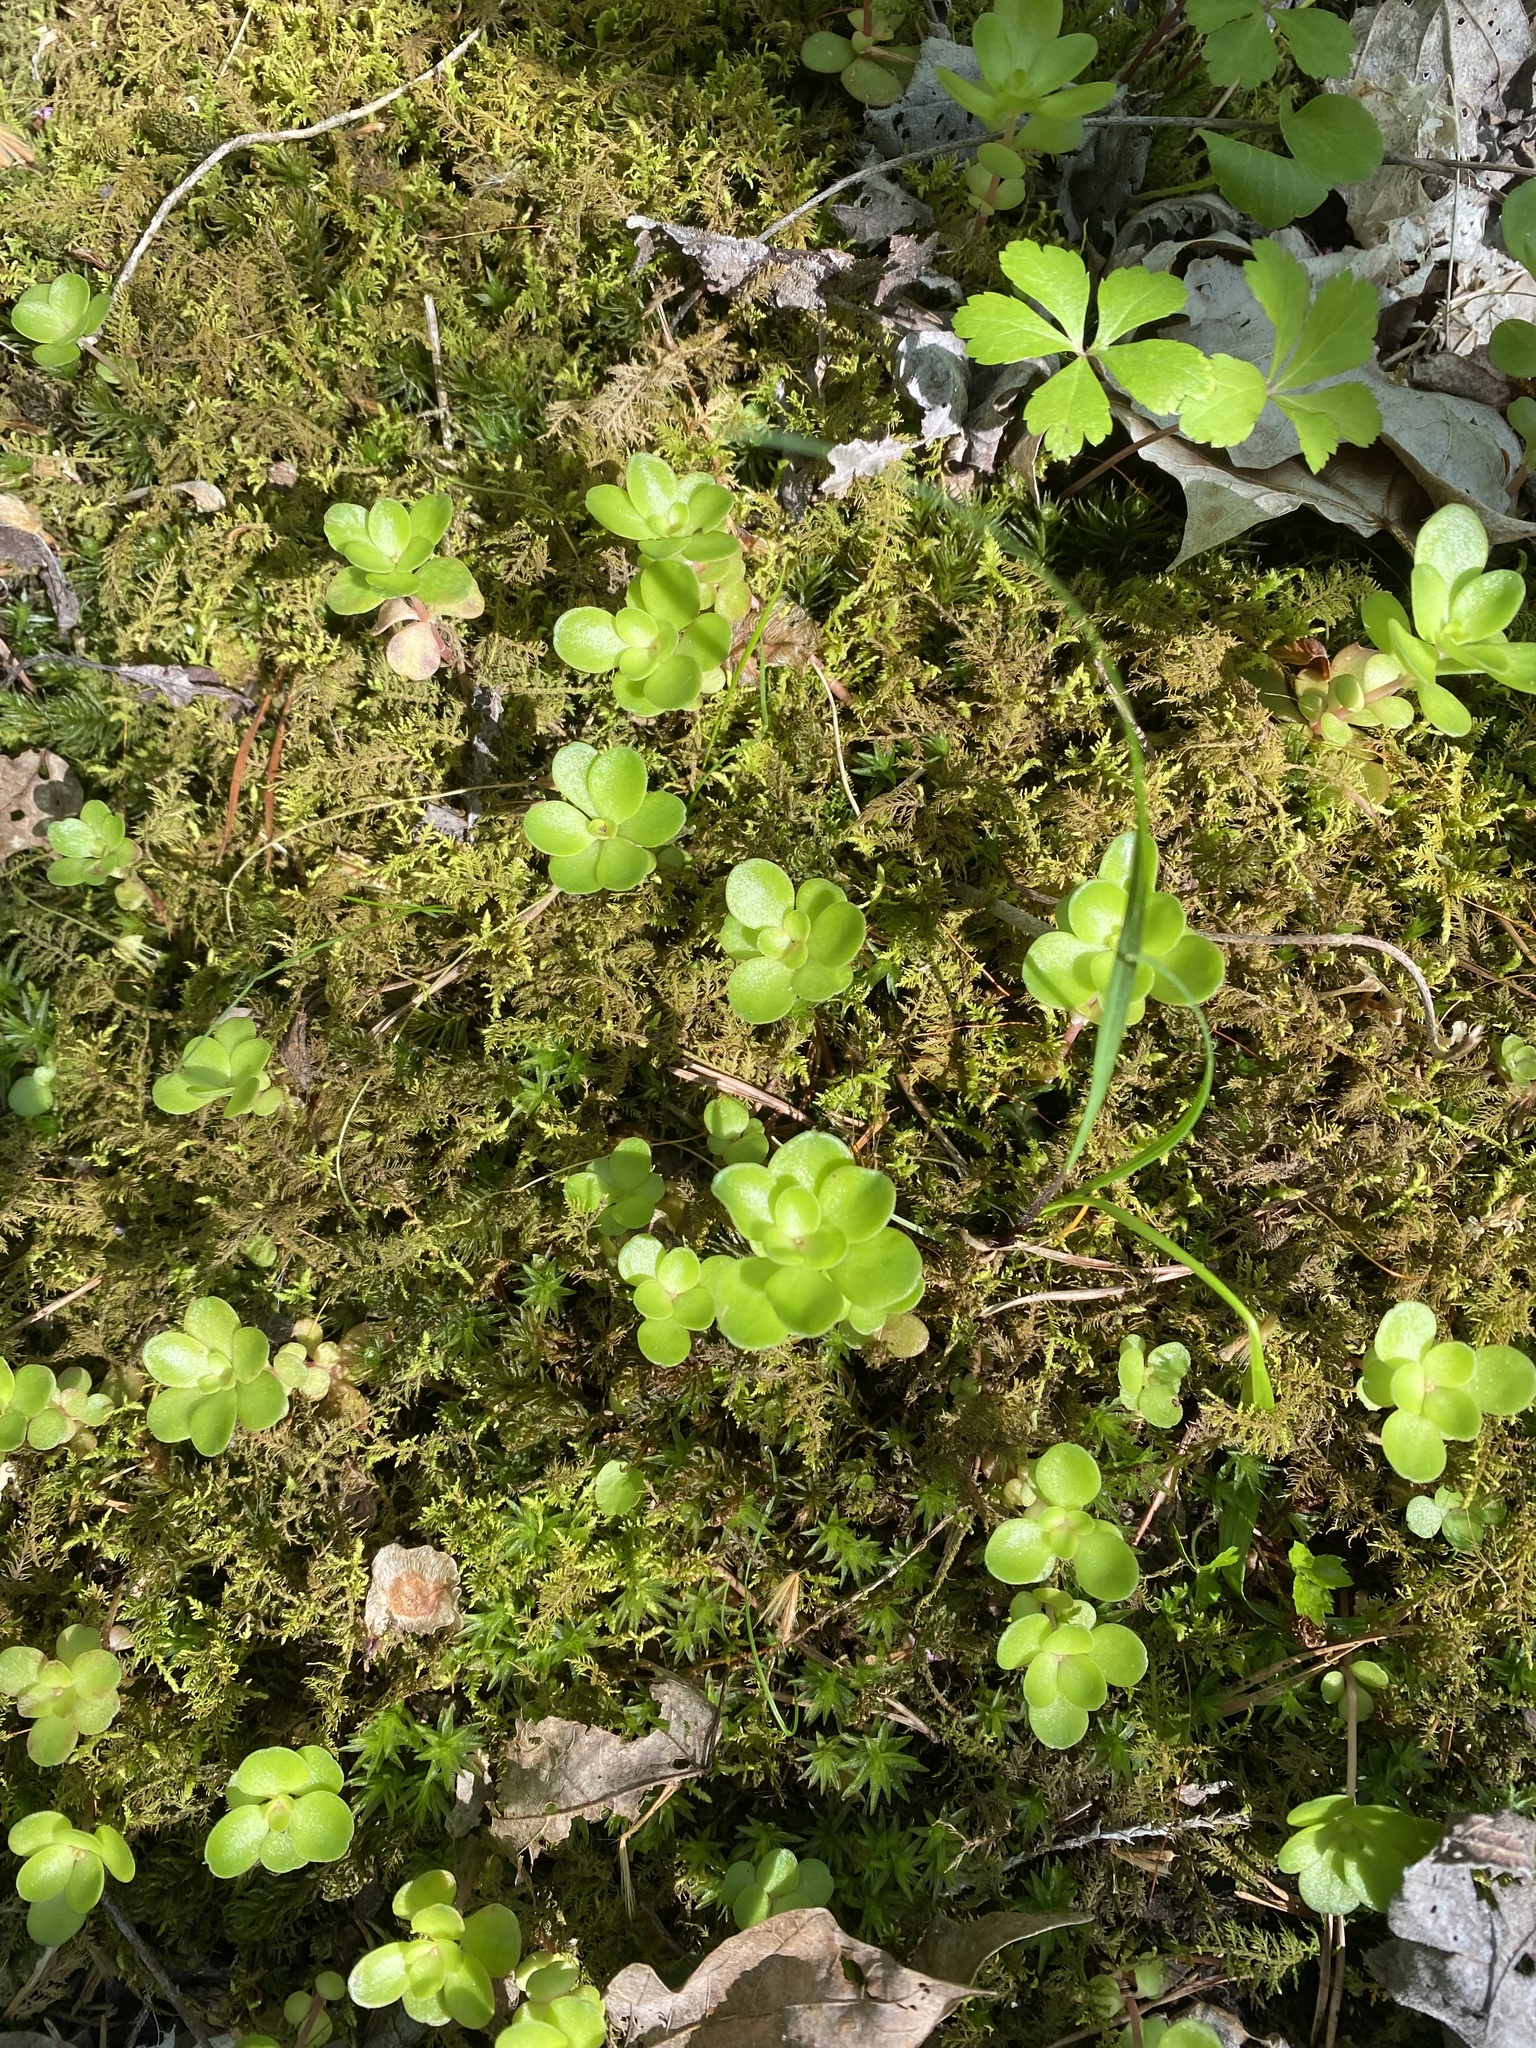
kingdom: Plantae
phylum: Tracheophyta
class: Magnoliopsida
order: Saxifragales
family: Crassulaceae
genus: Sedum
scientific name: Sedum ternatum
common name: Wild stonecrop
